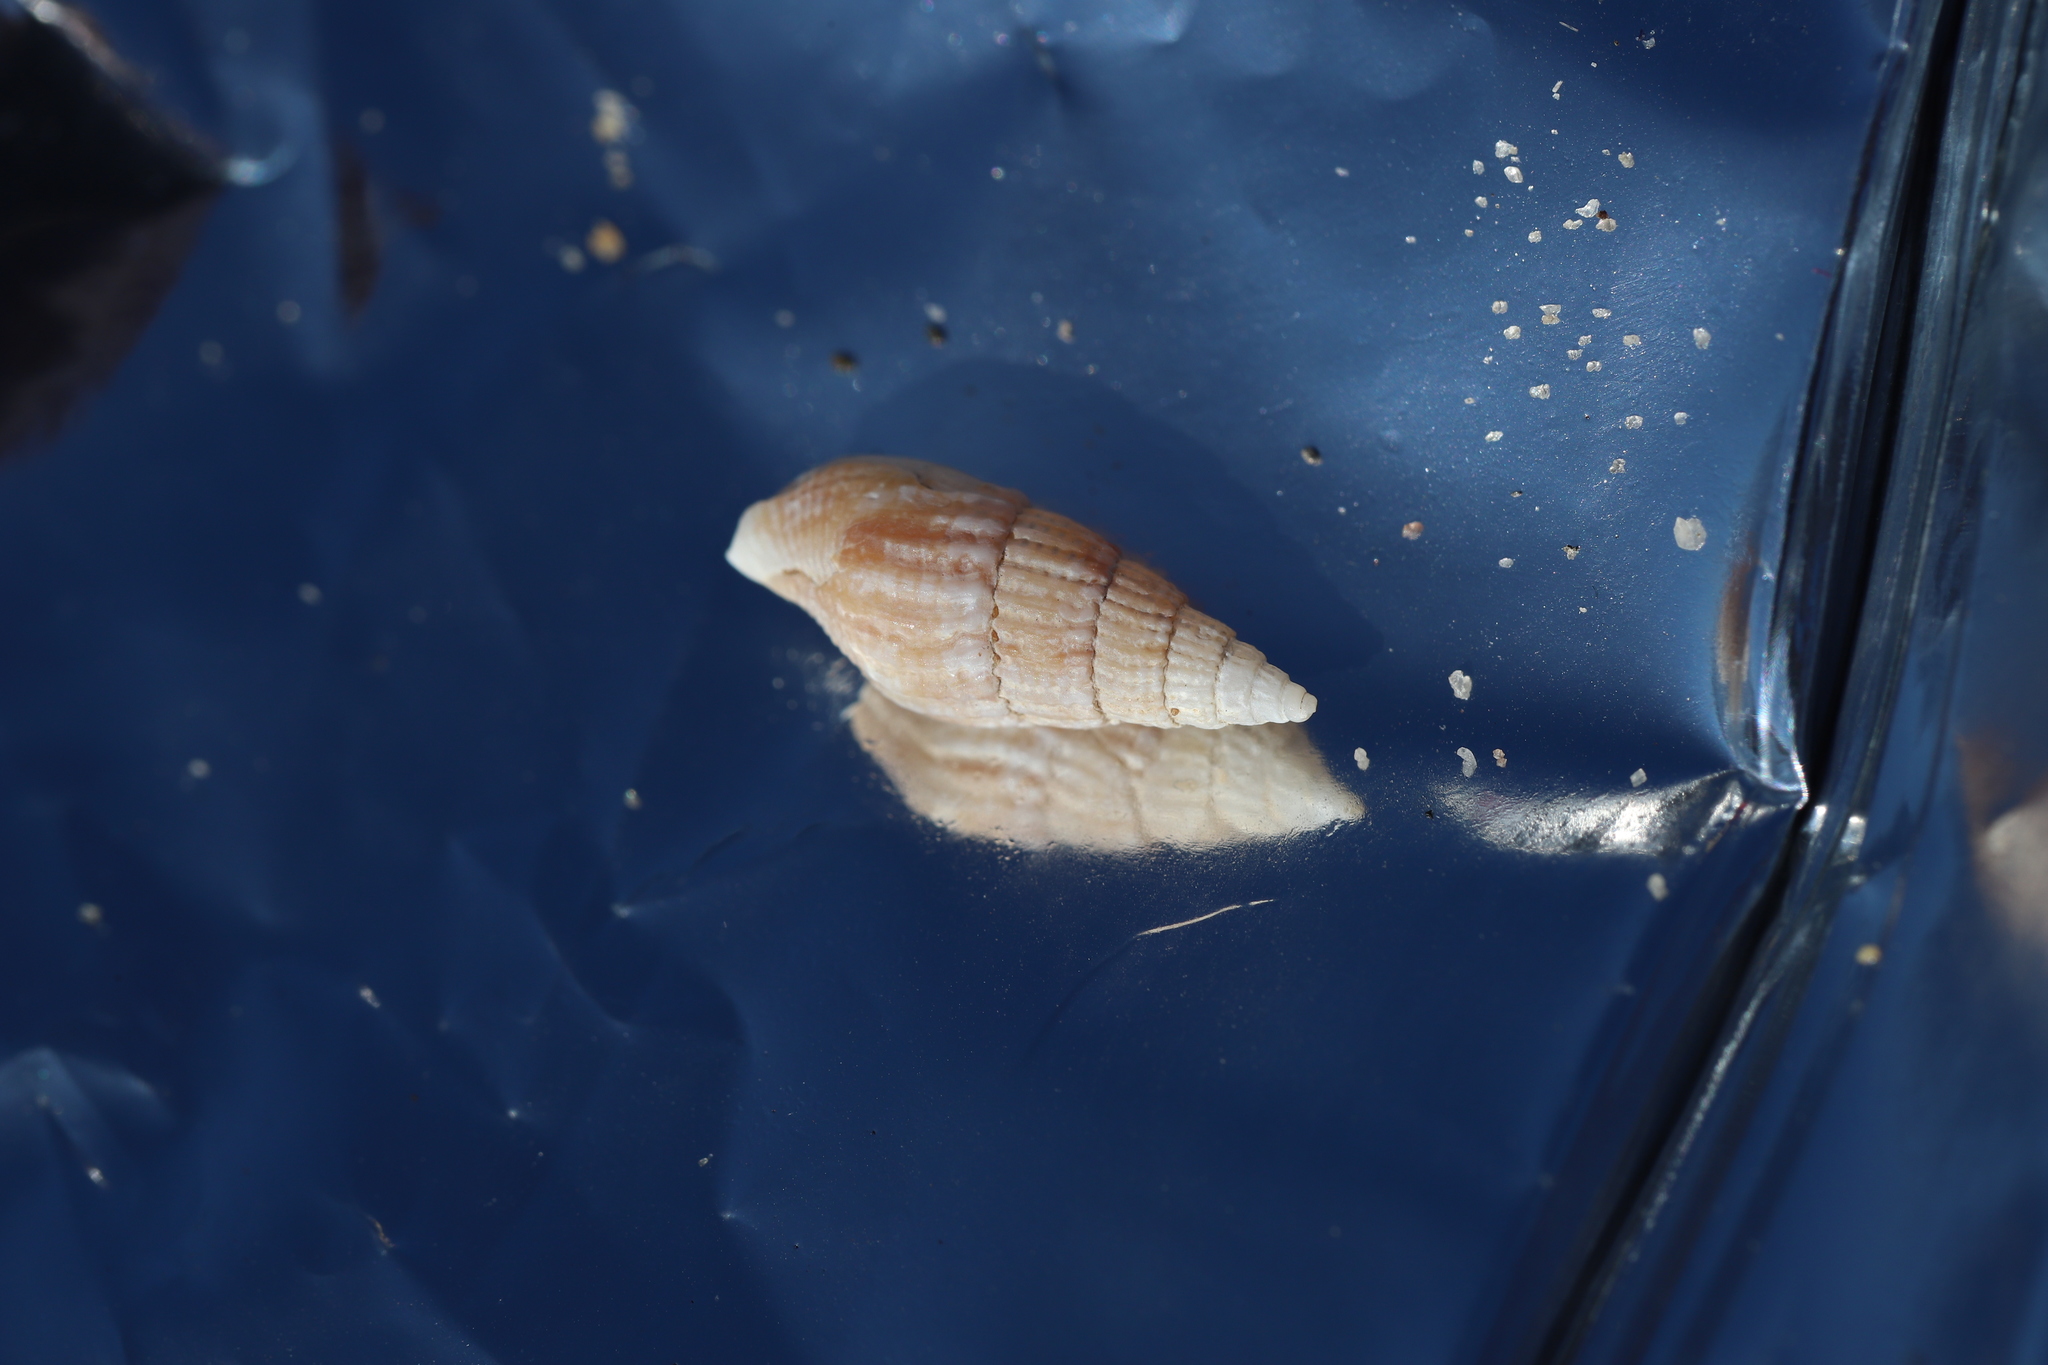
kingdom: Animalia
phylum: Mollusca
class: Gastropoda
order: Neogastropoda
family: Columbellidae
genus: Costoanachis
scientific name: Costoanachis translirata
